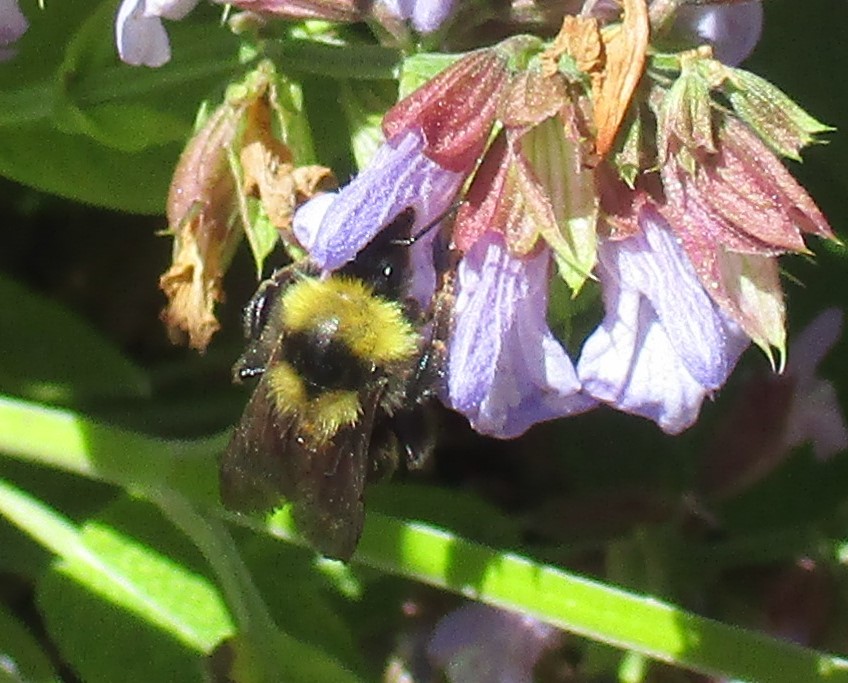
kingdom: Animalia
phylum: Arthropoda
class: Insecta
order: Hymenoptera
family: Apidae
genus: Bombus
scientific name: Bombus californicus
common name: California bumble bee
